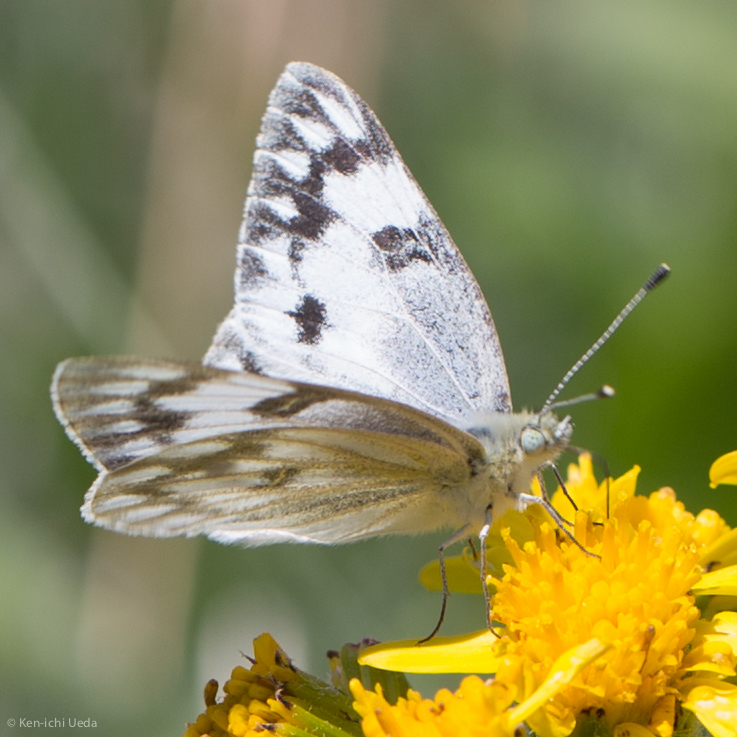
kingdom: Animalia
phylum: Arthropoda
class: Insecta
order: Lepidoptera
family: Pieridae
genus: Pontia
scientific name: Pontia protodice
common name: Checkered white
